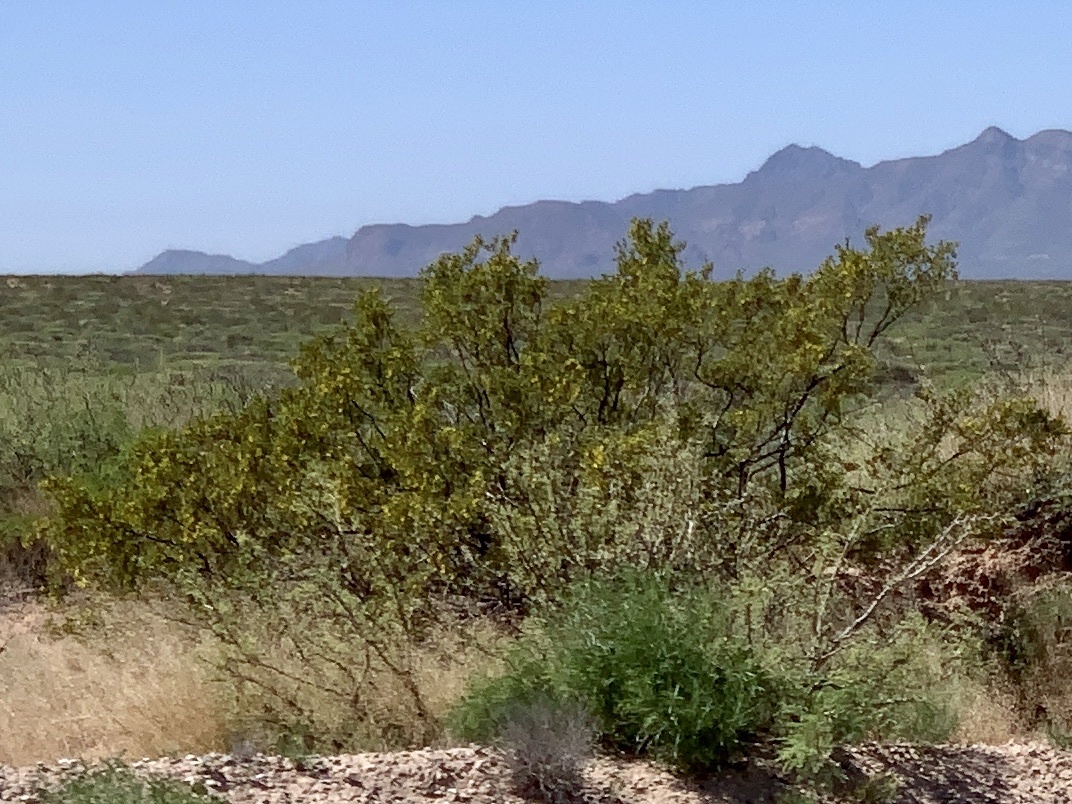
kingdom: Plantae
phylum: Tracheophyta
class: Magnoliopsida
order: Zygophyllales
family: Zygophyllaceae
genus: Larrea
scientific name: Larrea tridentata
